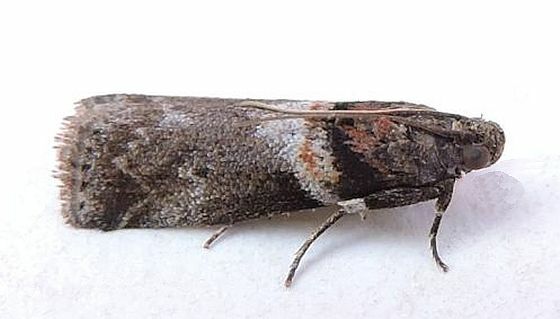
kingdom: Animalia
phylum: Arthropoda
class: Insecta
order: Lepidoptera
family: Pyralidae
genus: Salebriaria
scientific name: Salebriaria tenebrosella
